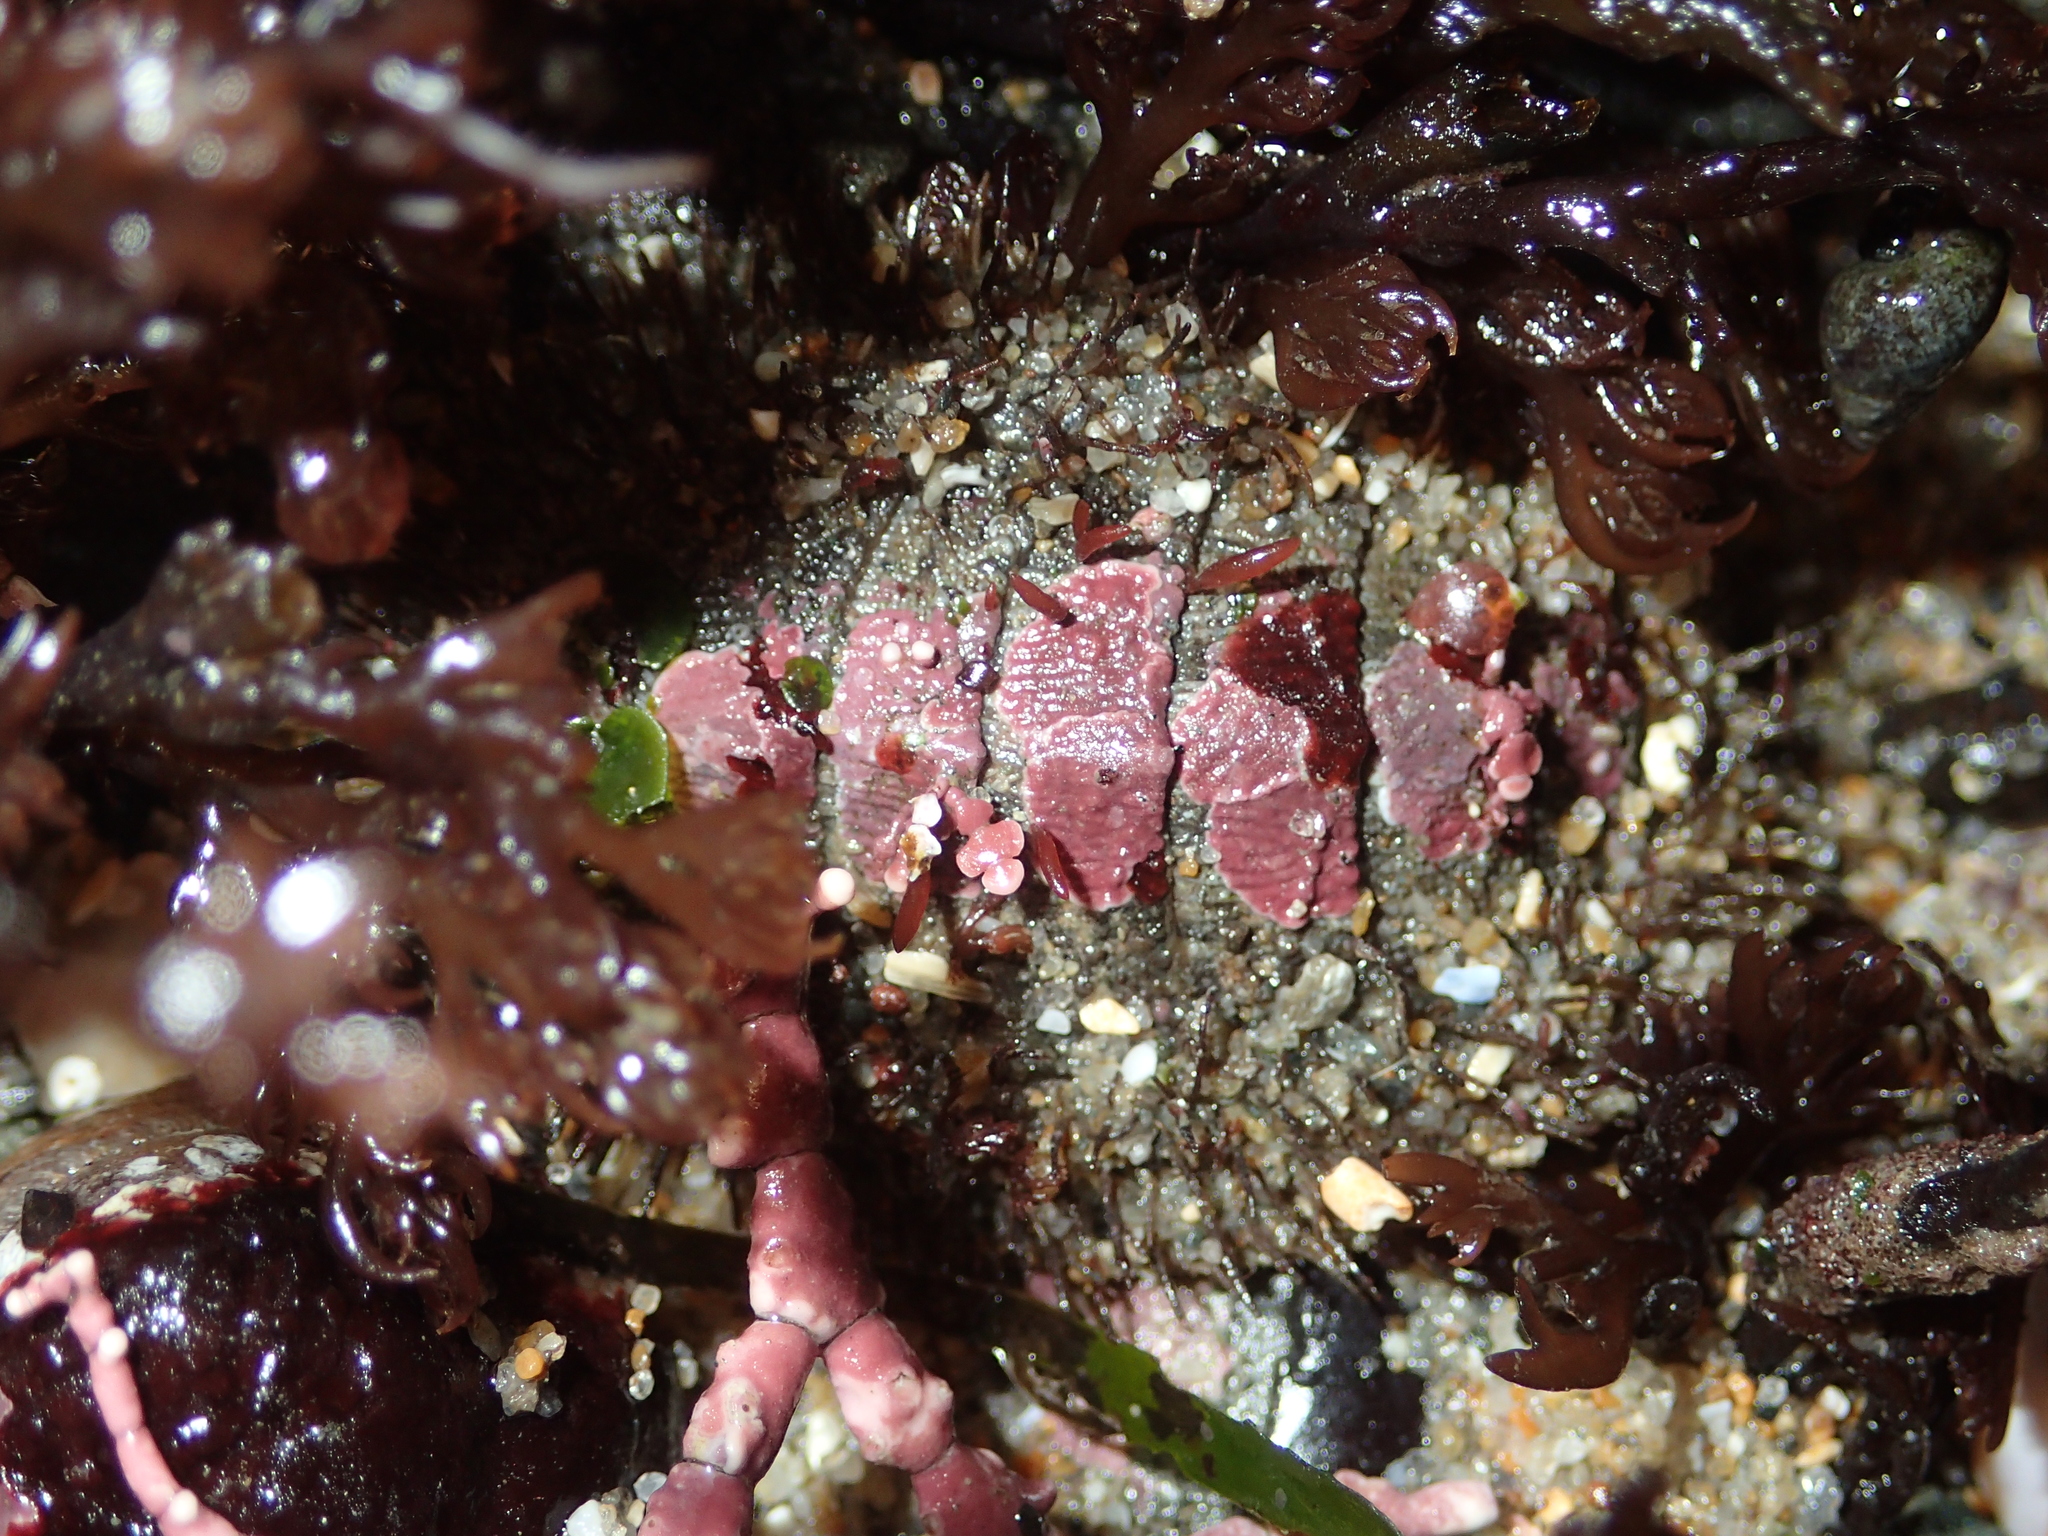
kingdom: Animalia
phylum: Mollusca
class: Polyplacophora
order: Chitonida
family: Mopaliidae
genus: Mopalia
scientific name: Mopalia muscosa
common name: Mossy chiton
